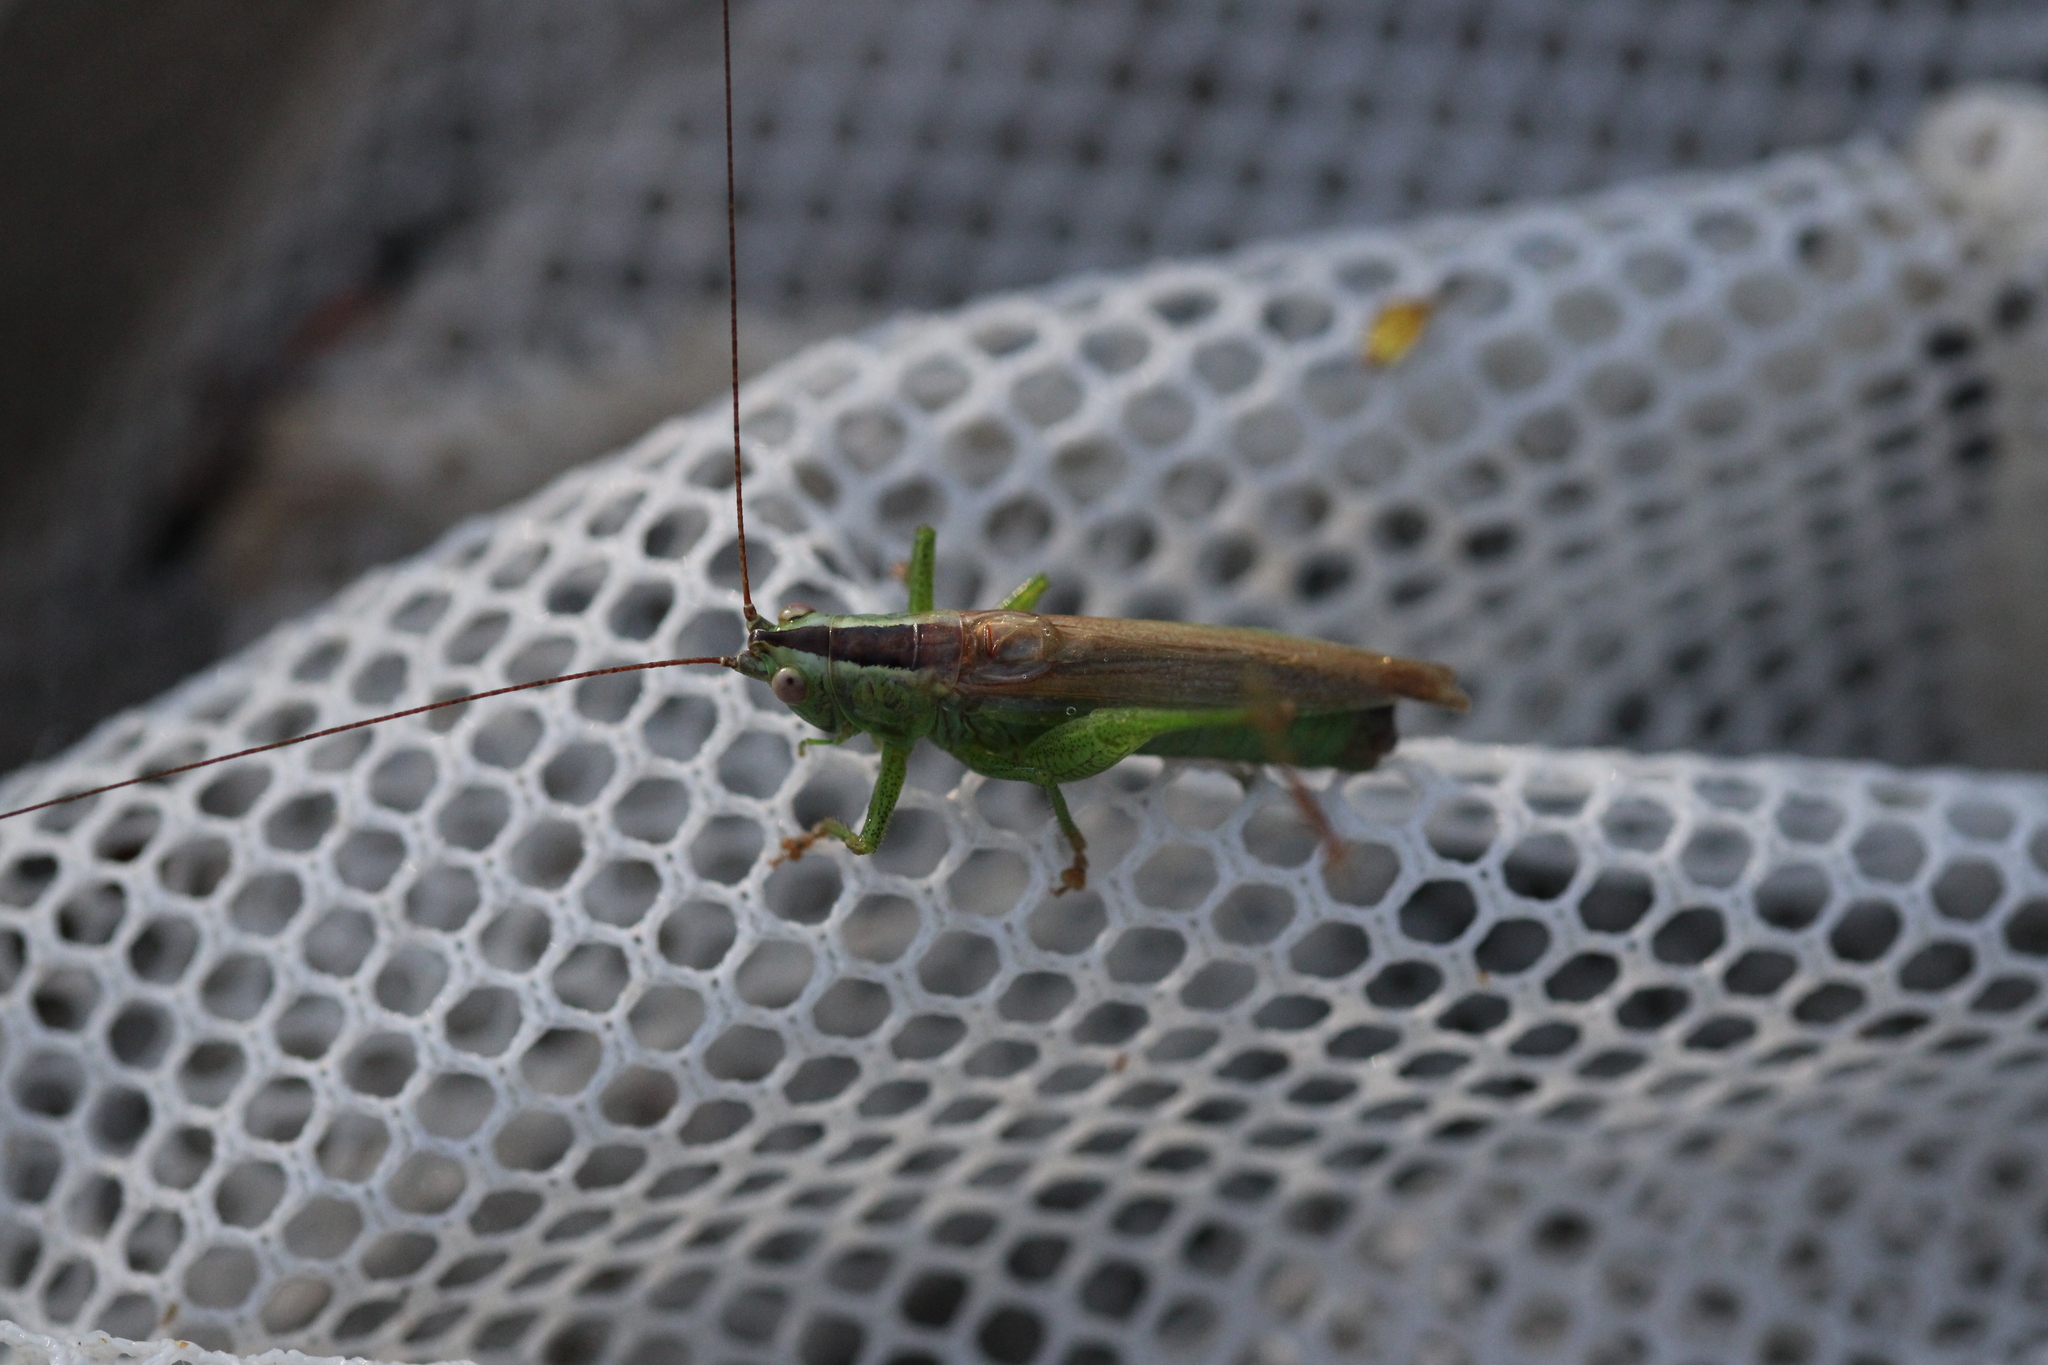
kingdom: Animalia
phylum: Arthropoda
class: Insecta
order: Orthoptera
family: Tettigoniidae
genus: Conocephalus
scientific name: Conocephalus fuscus
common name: Long-winged conehead
